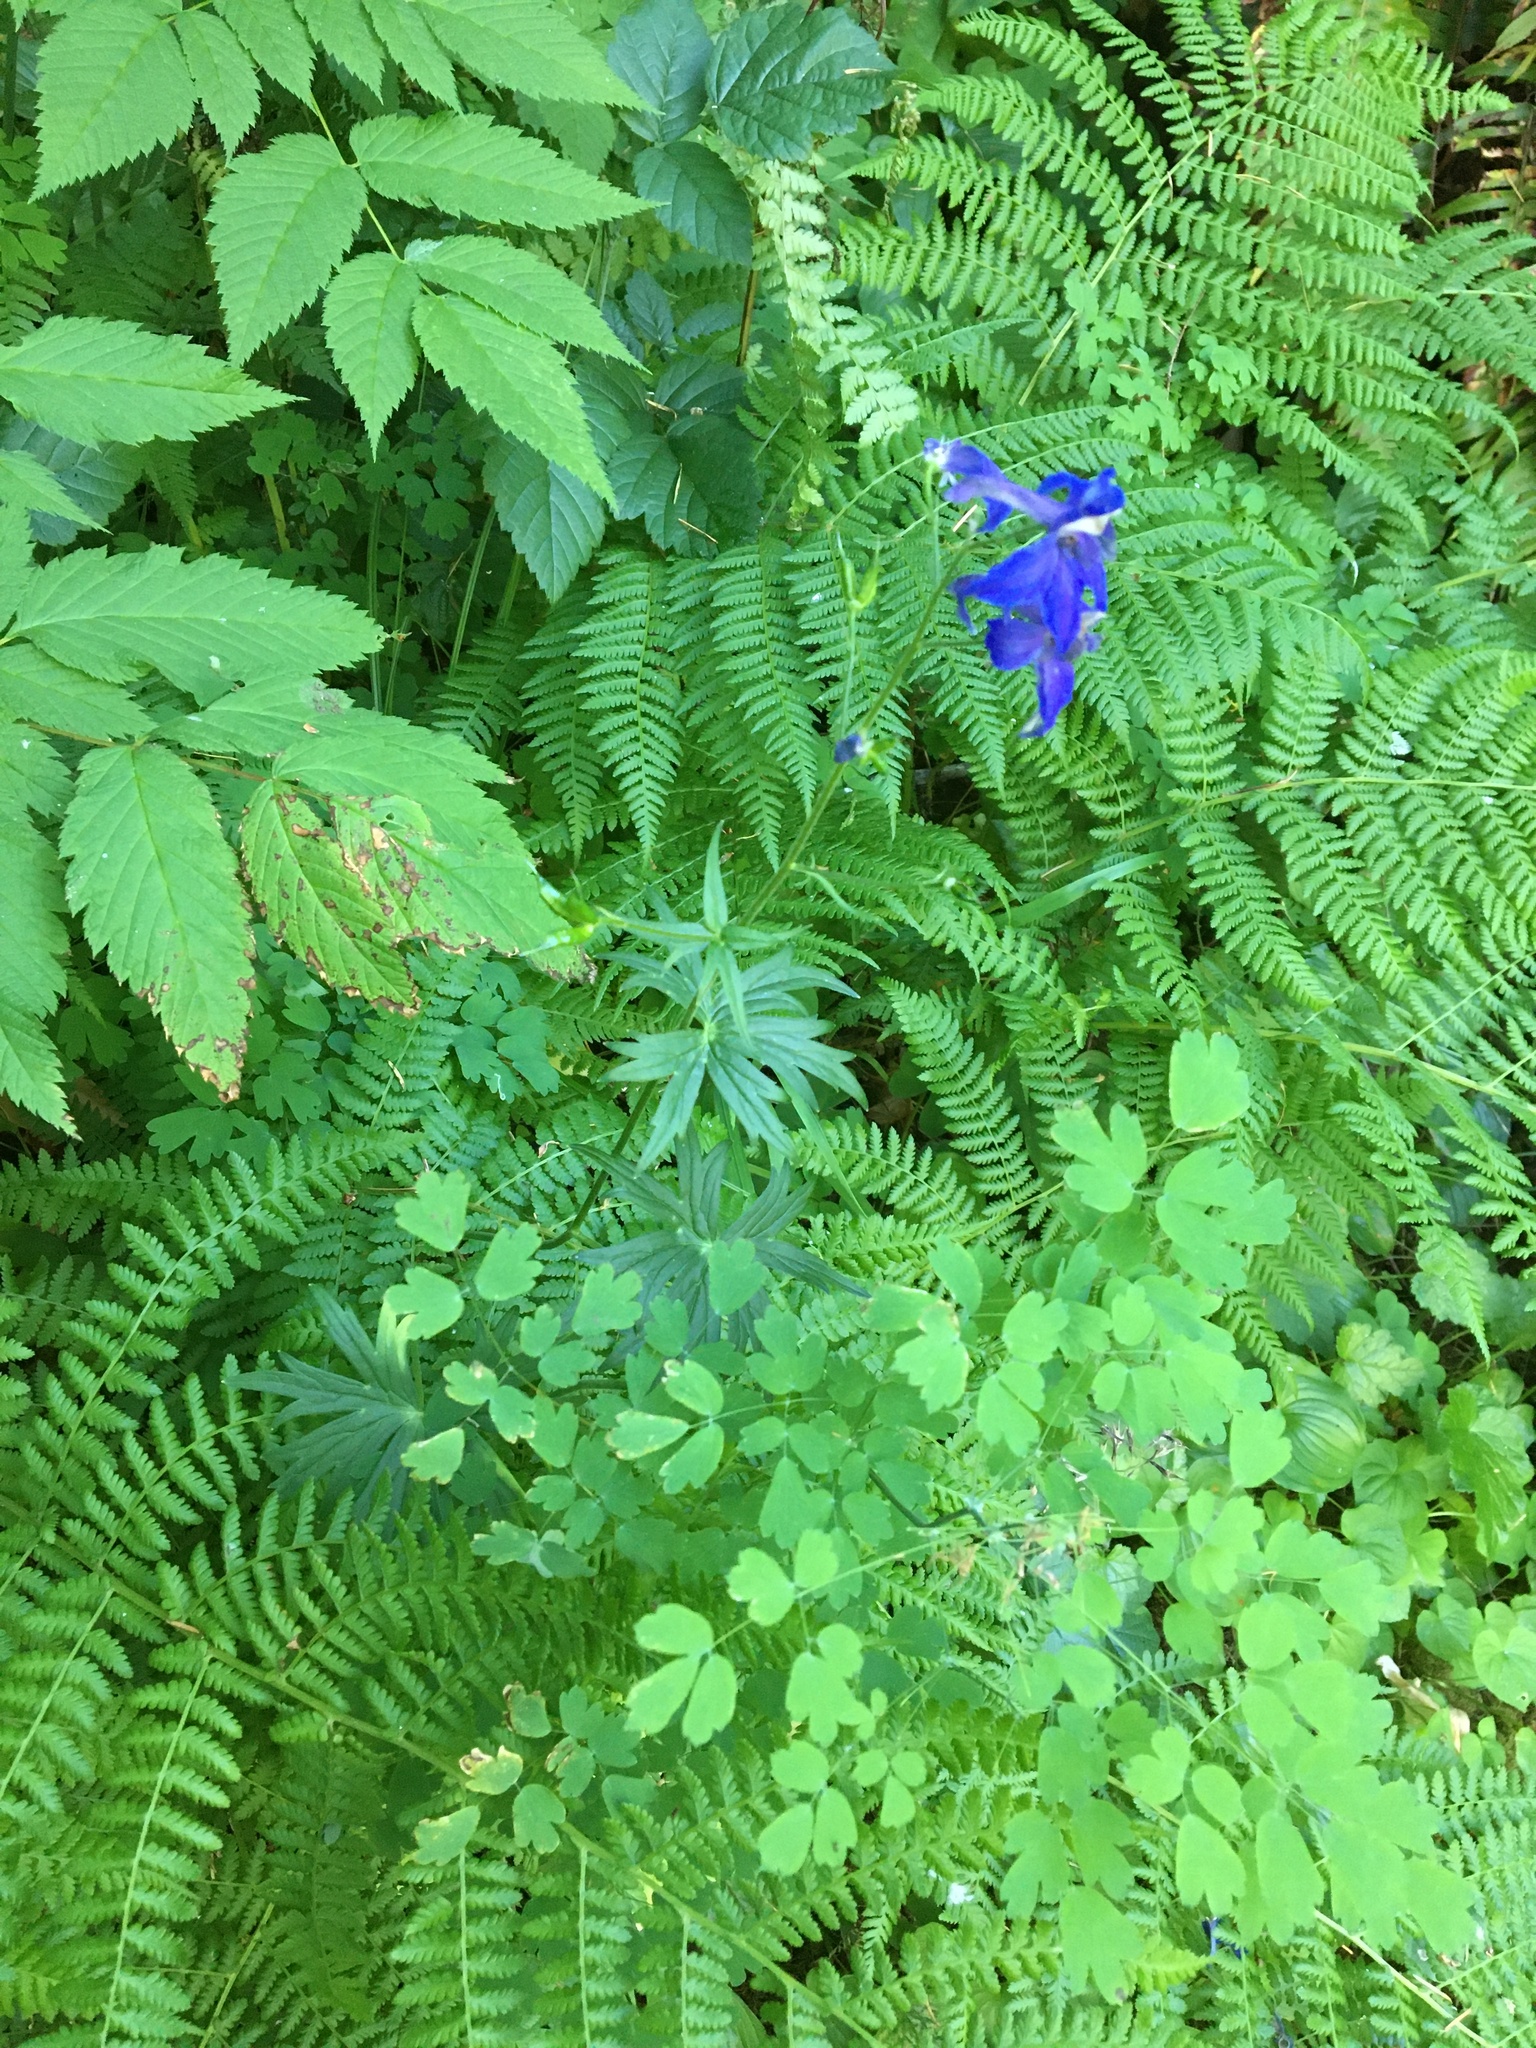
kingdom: Plantae
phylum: Tracheophyta
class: Magnoliopsida
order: Ranunculales
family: Ranunculaceae
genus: Delphinium
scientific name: Delphinium trolliifolium
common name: Cow-poison
